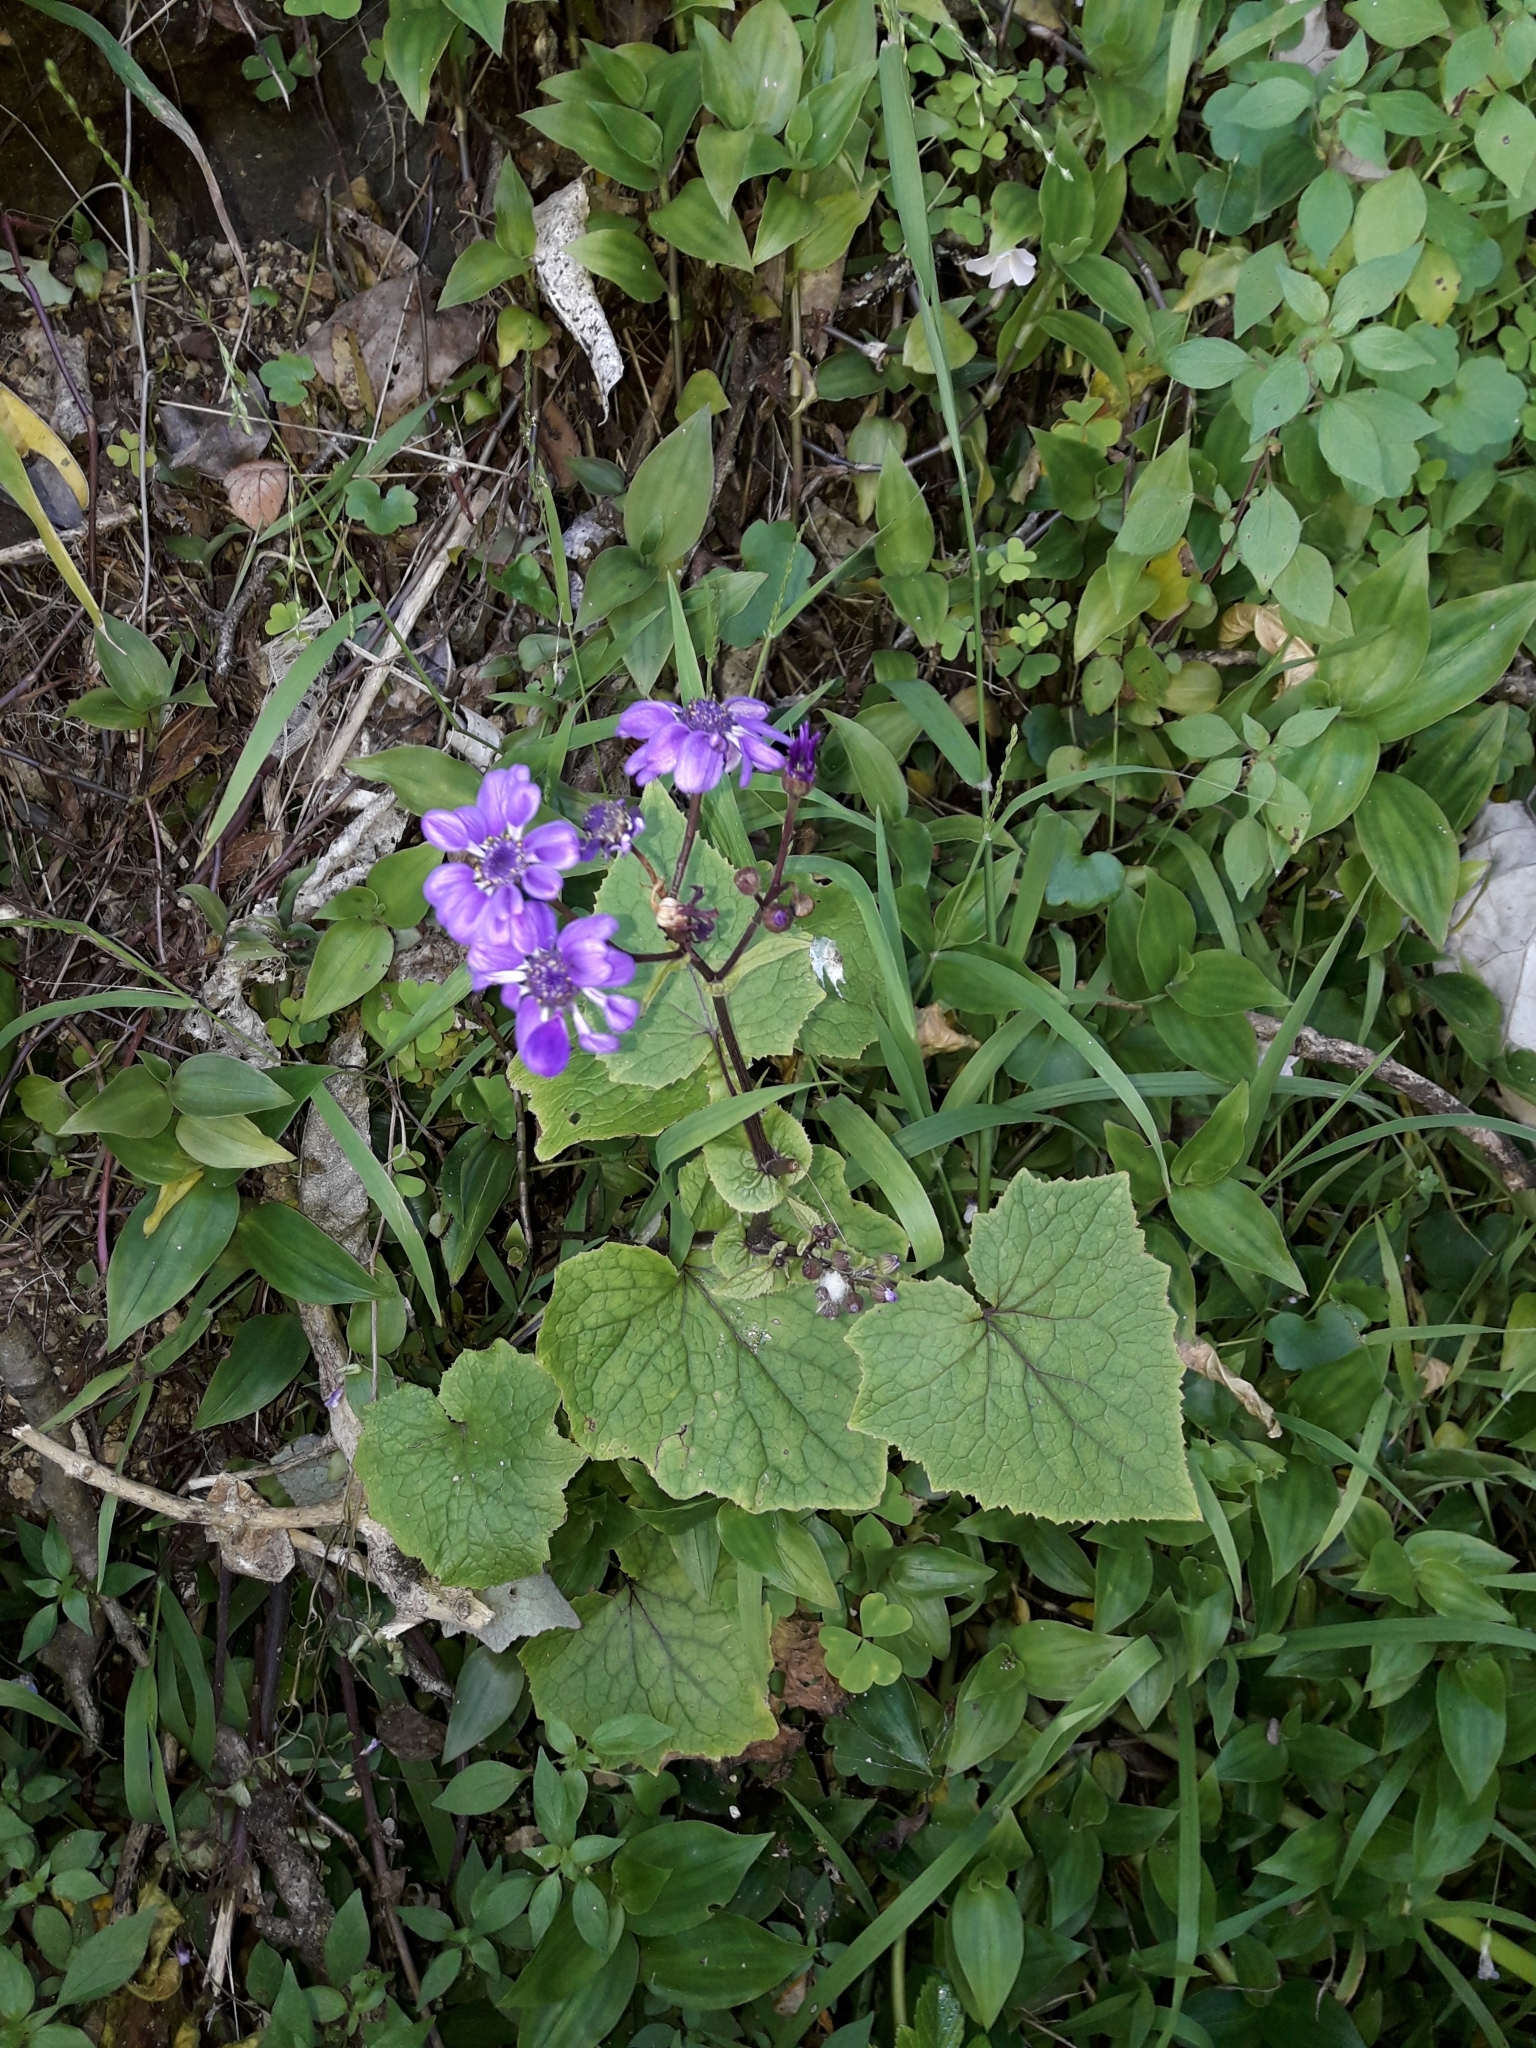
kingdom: Plantae
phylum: Tracheophyta
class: Magnoliopsida
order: Asterales
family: Asteraceae
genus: Pericallis
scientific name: Pericallis hybrida
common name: Cineraria
